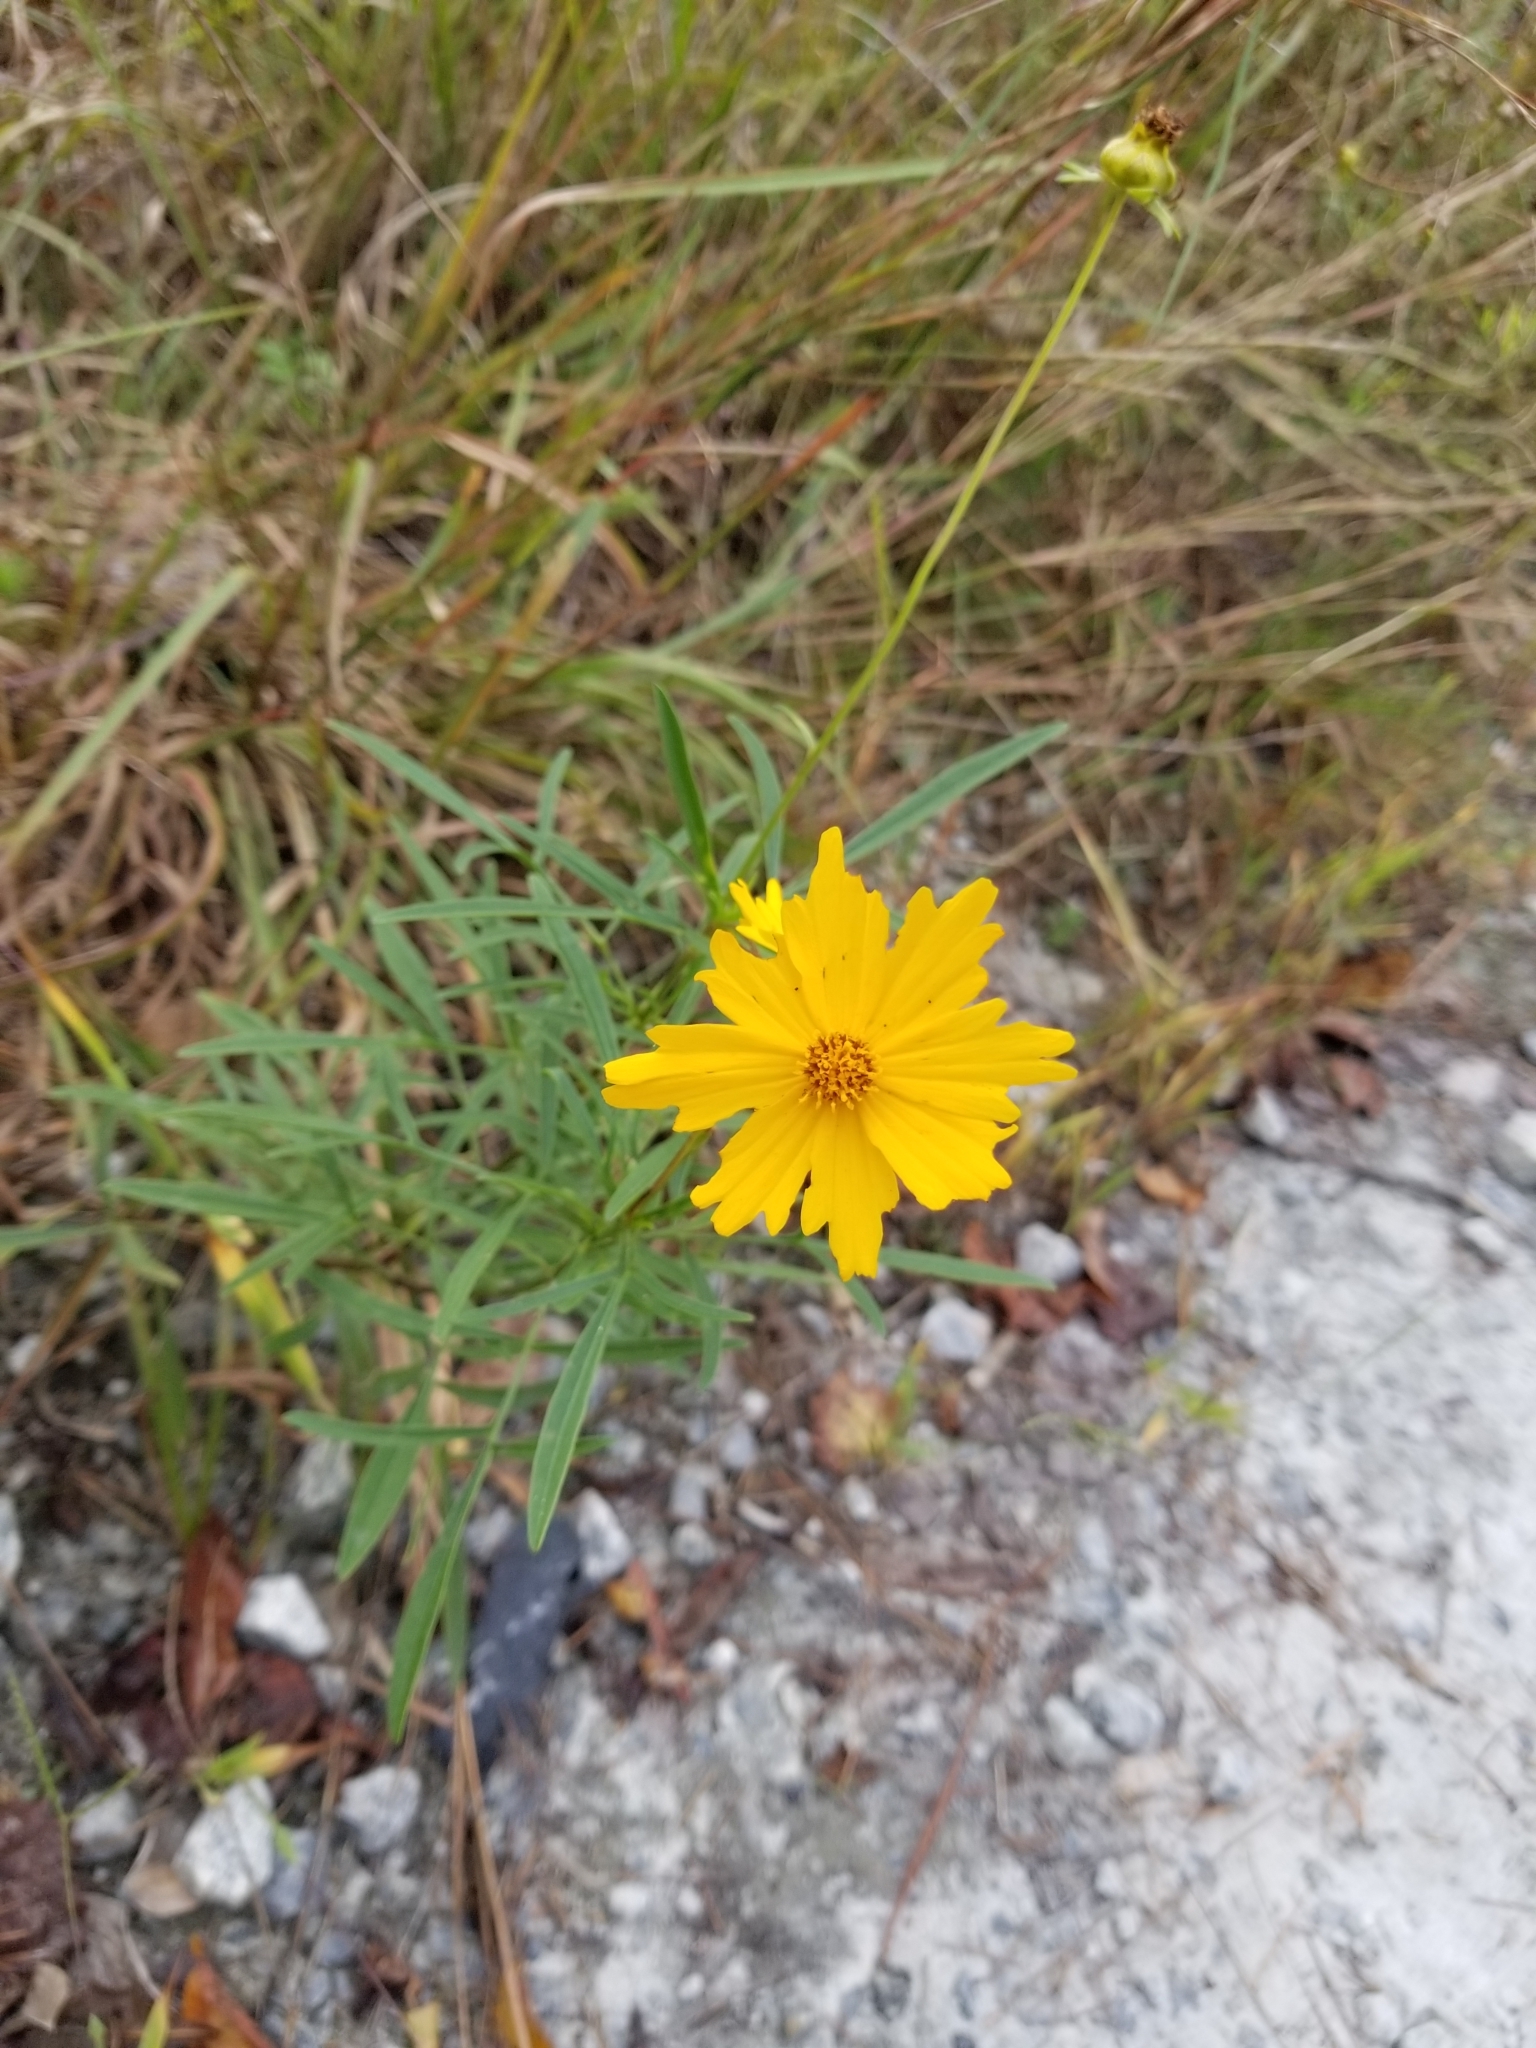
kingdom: Plantae
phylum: Tracheophyta
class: Magnoliopsida
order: Asterales
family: Asteraceae
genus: Coreopsis
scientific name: Coreopsis lanceolata
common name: Garden coreopsis
